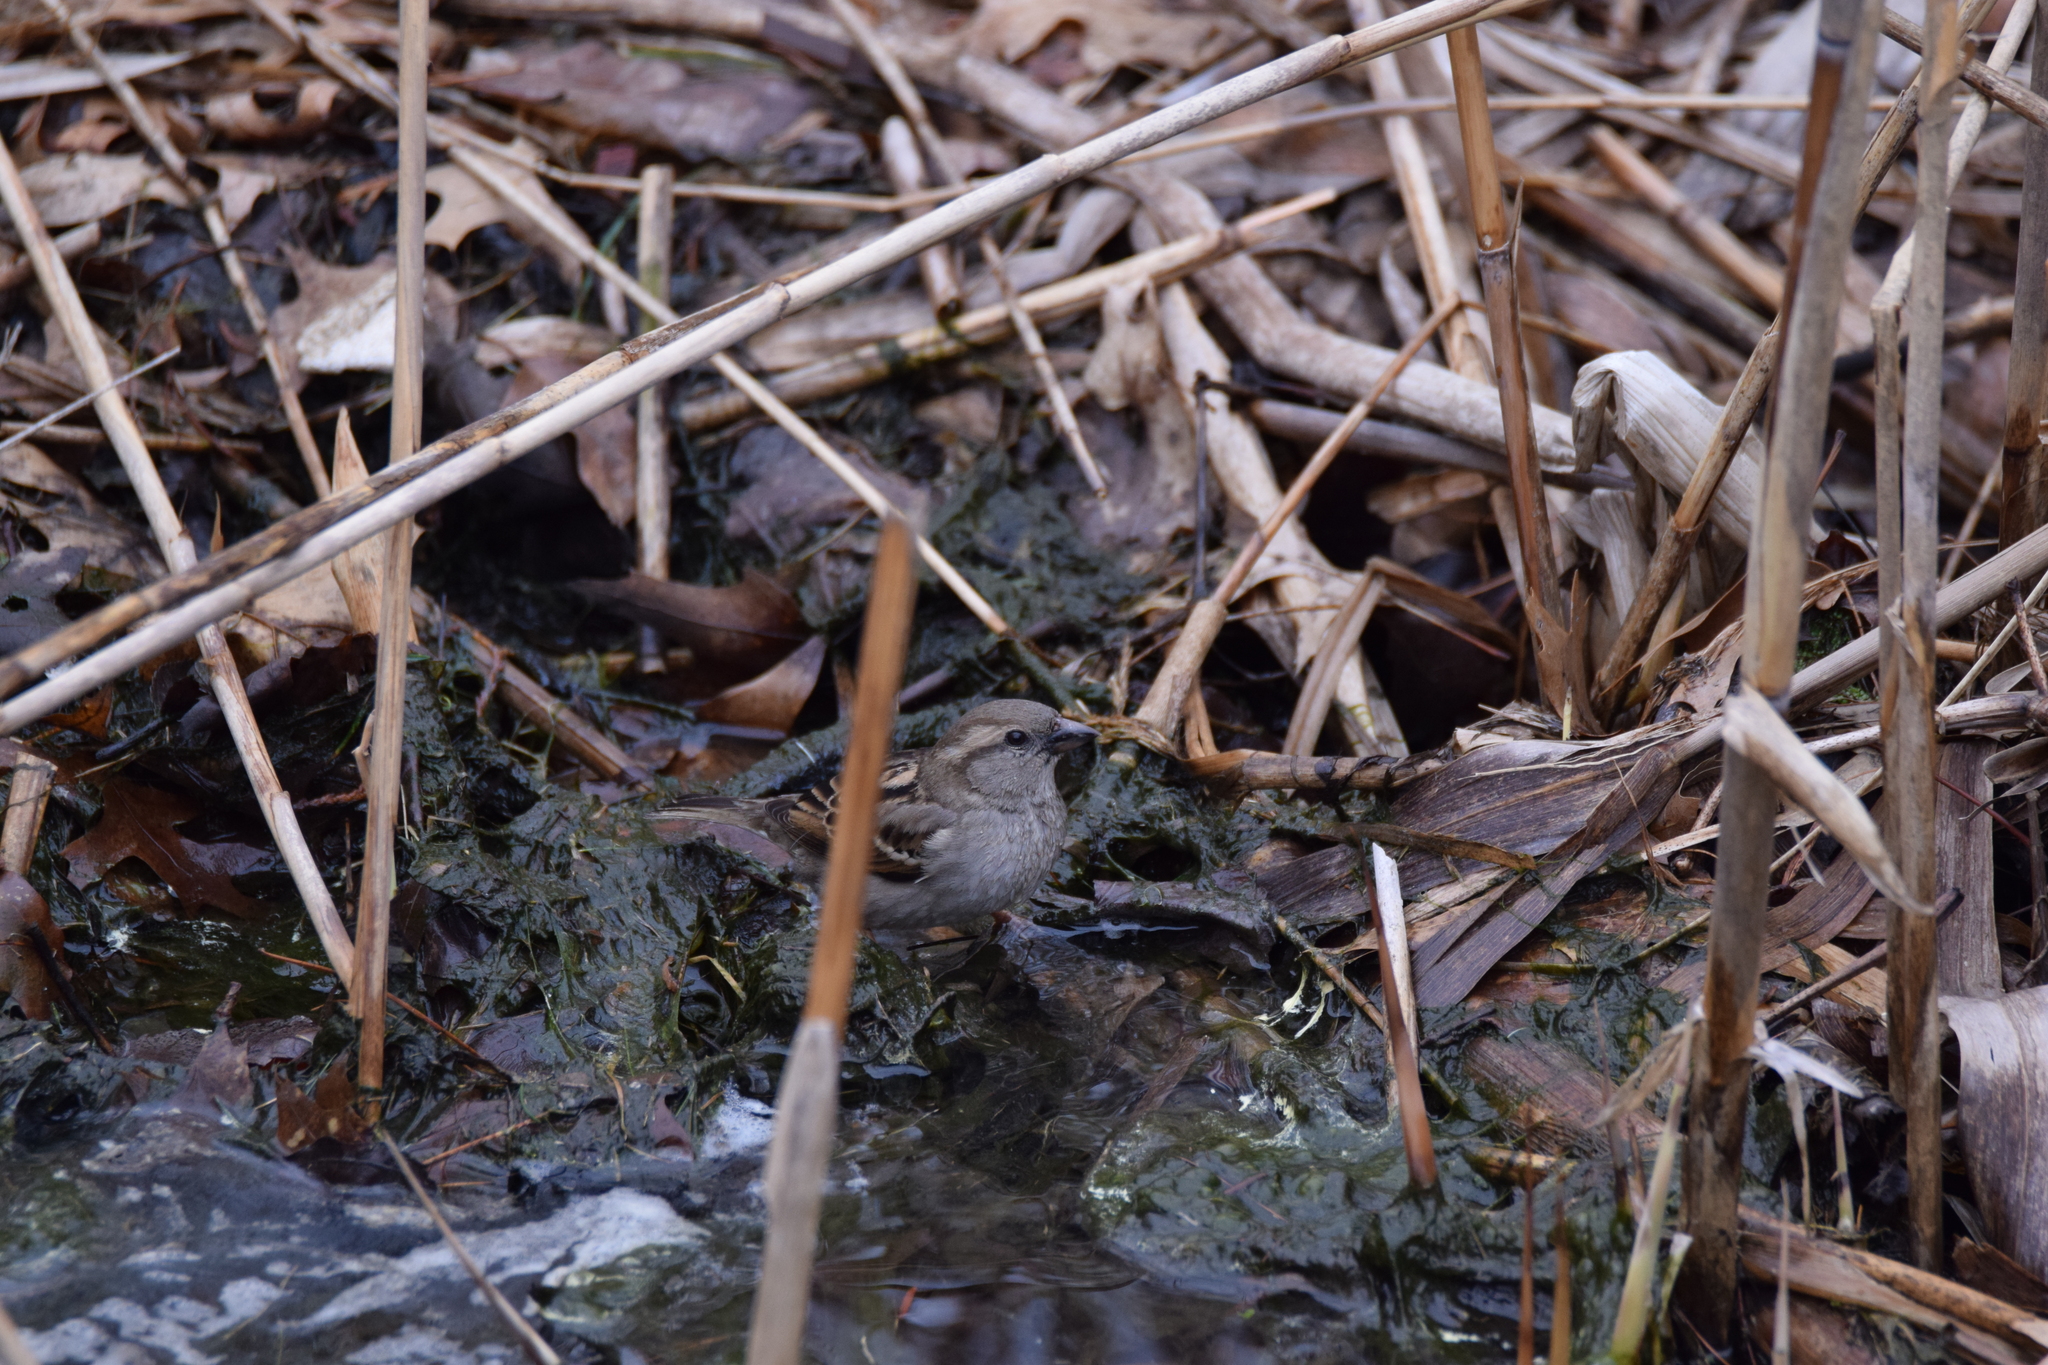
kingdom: Animalia
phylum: Chordata
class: Aves
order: Passeriformes
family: Passeridae
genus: Passer
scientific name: Passer domesticus
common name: House sparrow
